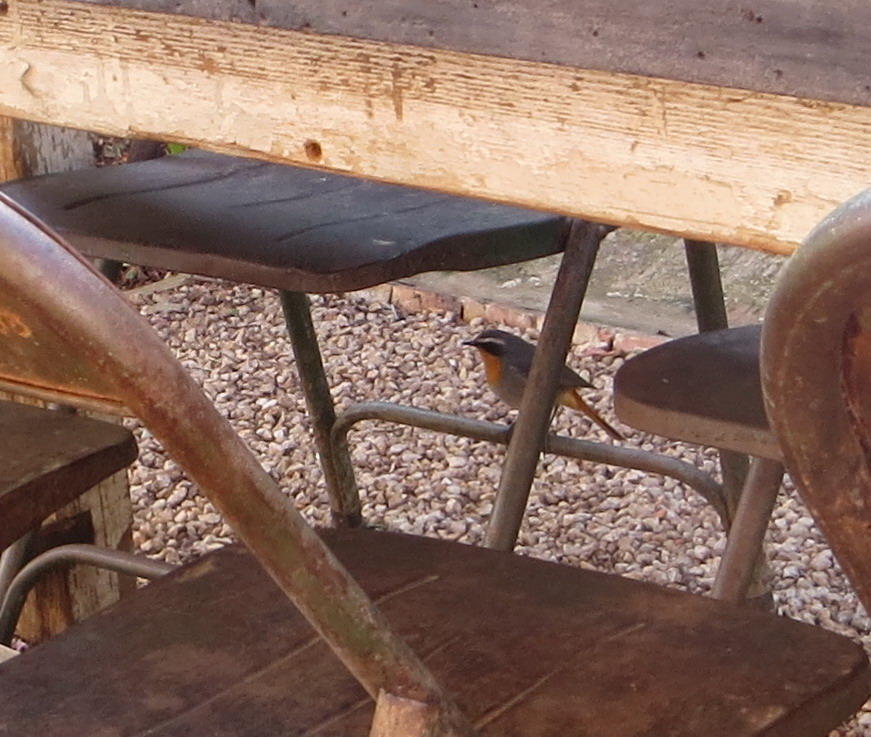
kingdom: Animalia
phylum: Chordata
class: Aves
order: Passeriformes
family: Muscicapidae
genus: Cossypha
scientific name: Cossypha caffra
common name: Cape robin-chat
